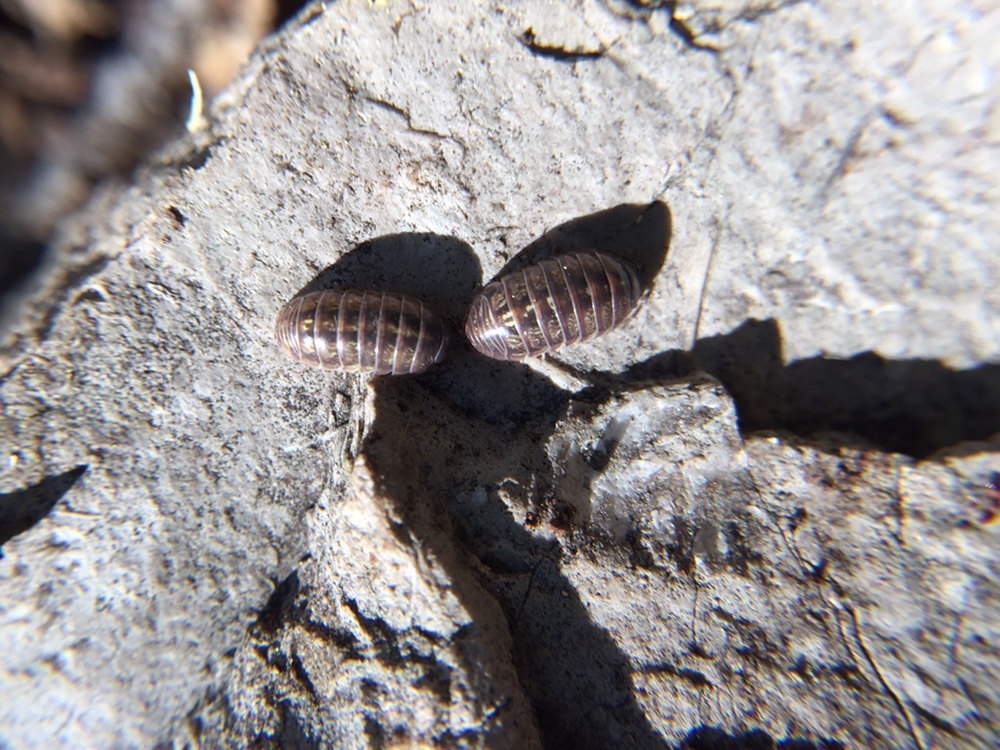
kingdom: Animalia
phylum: Arthropoda
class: Malacostraca
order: Isopoda
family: Armadillidiidae
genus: Armadillidium
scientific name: Armadillidium vulgare
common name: Common pill woodlouse
